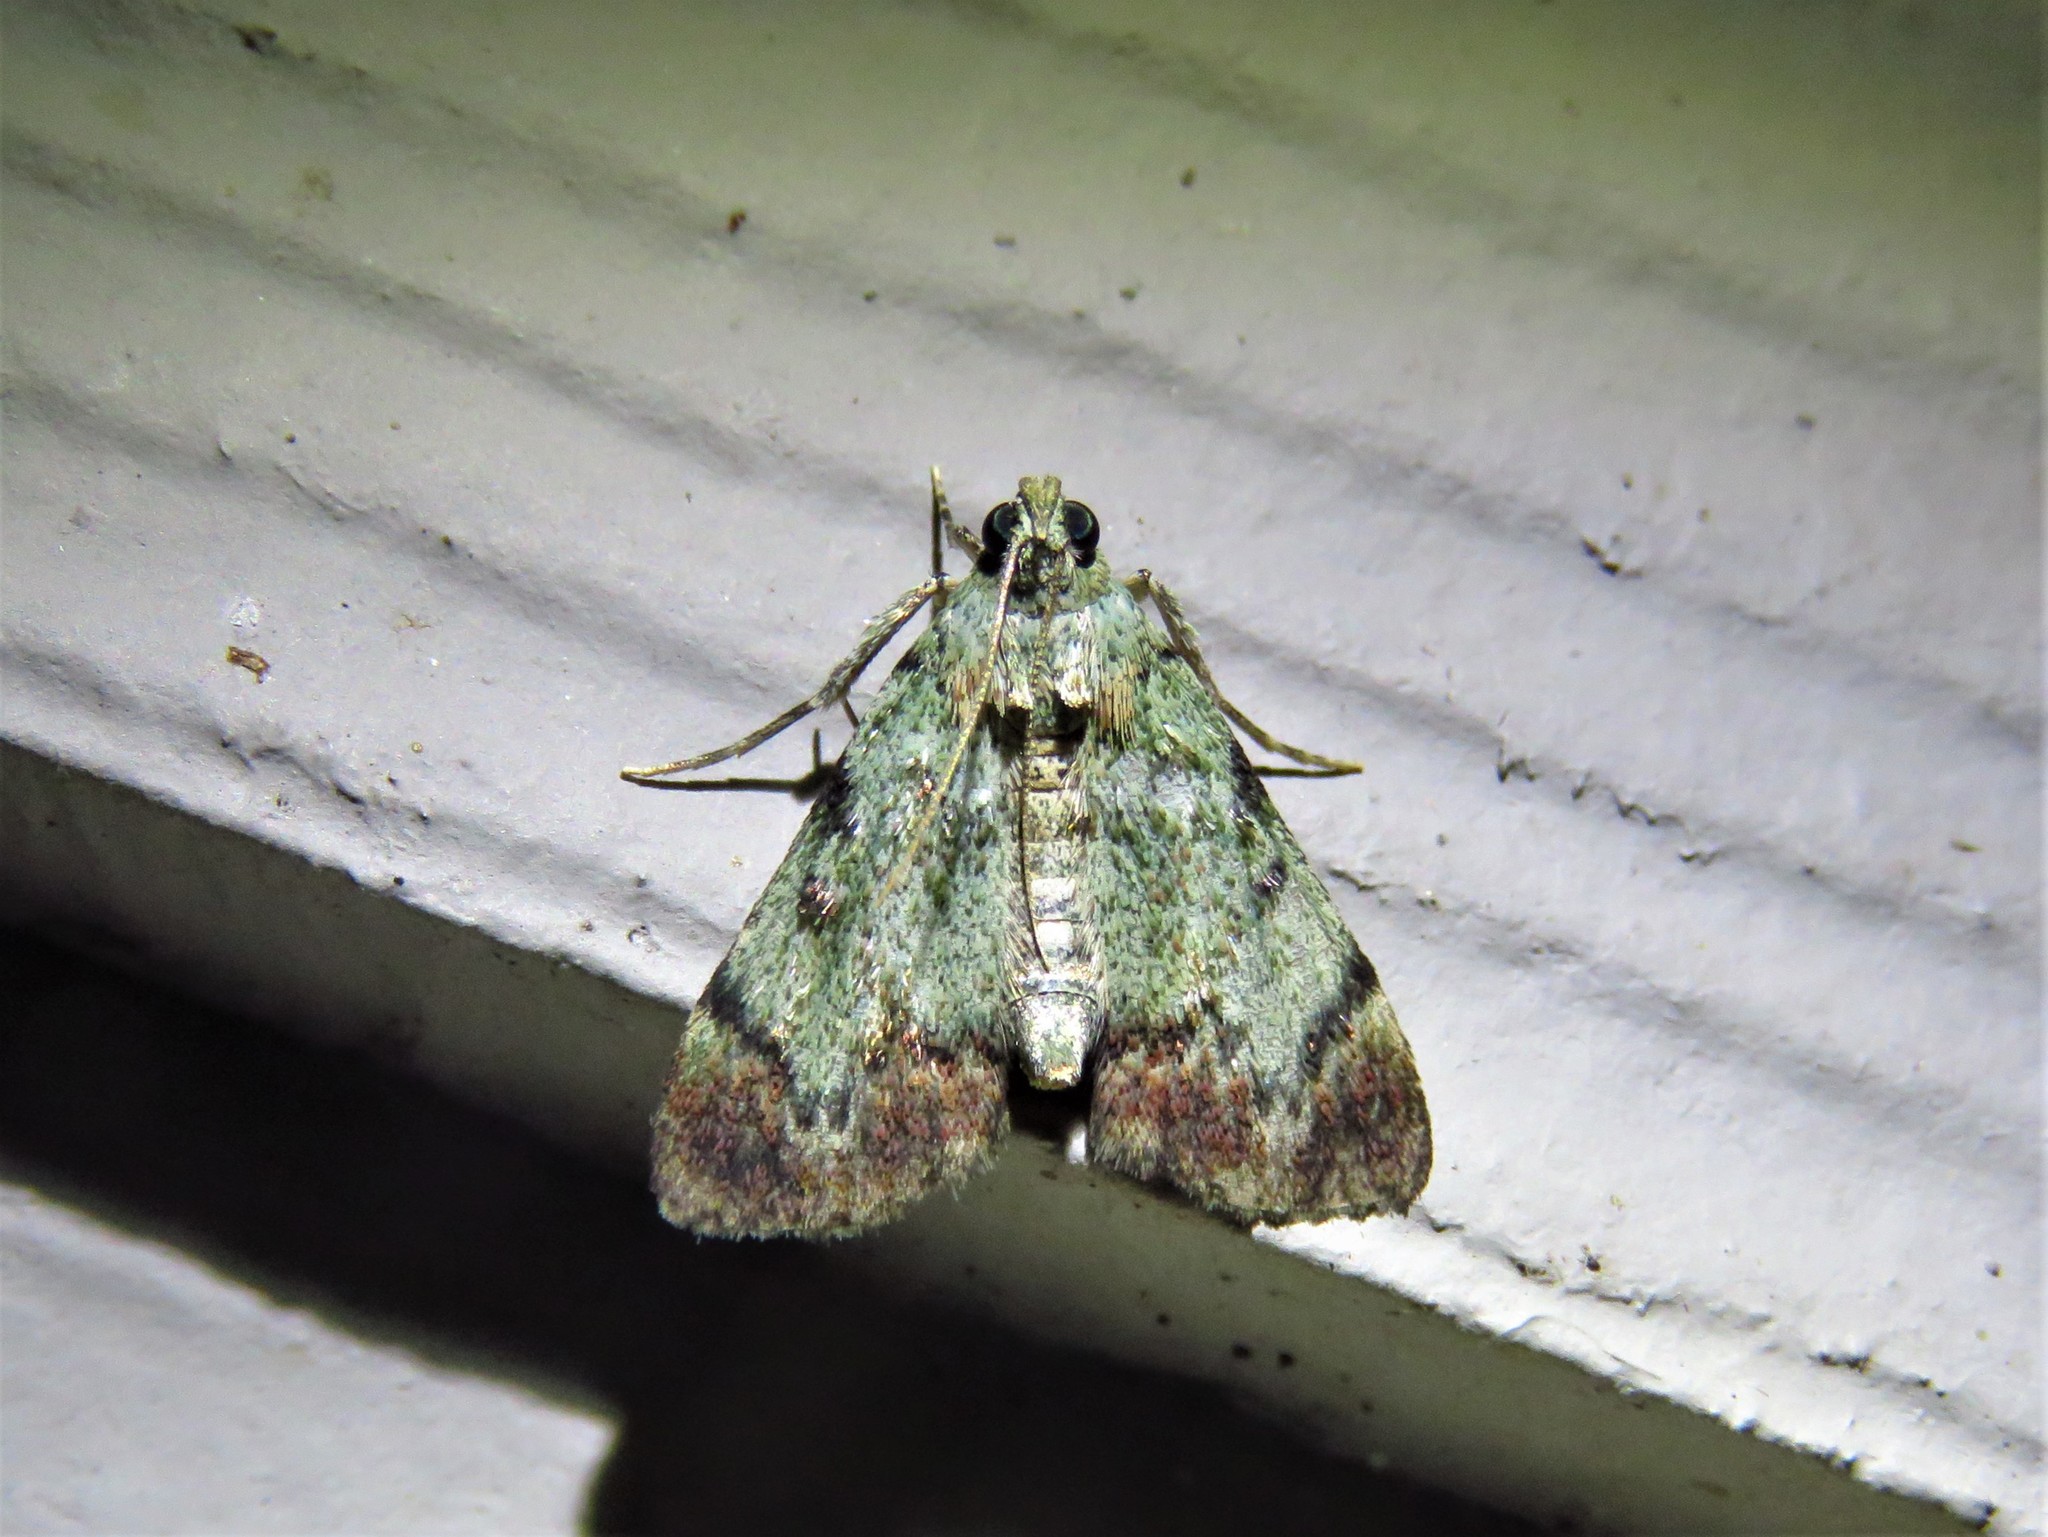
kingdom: Animalia
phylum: Arthropoda
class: Insecta
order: Lepidoptera
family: Pyralidae
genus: Epipaschia
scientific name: Epipaschia superatalis
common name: Dimorphic macalla moth
